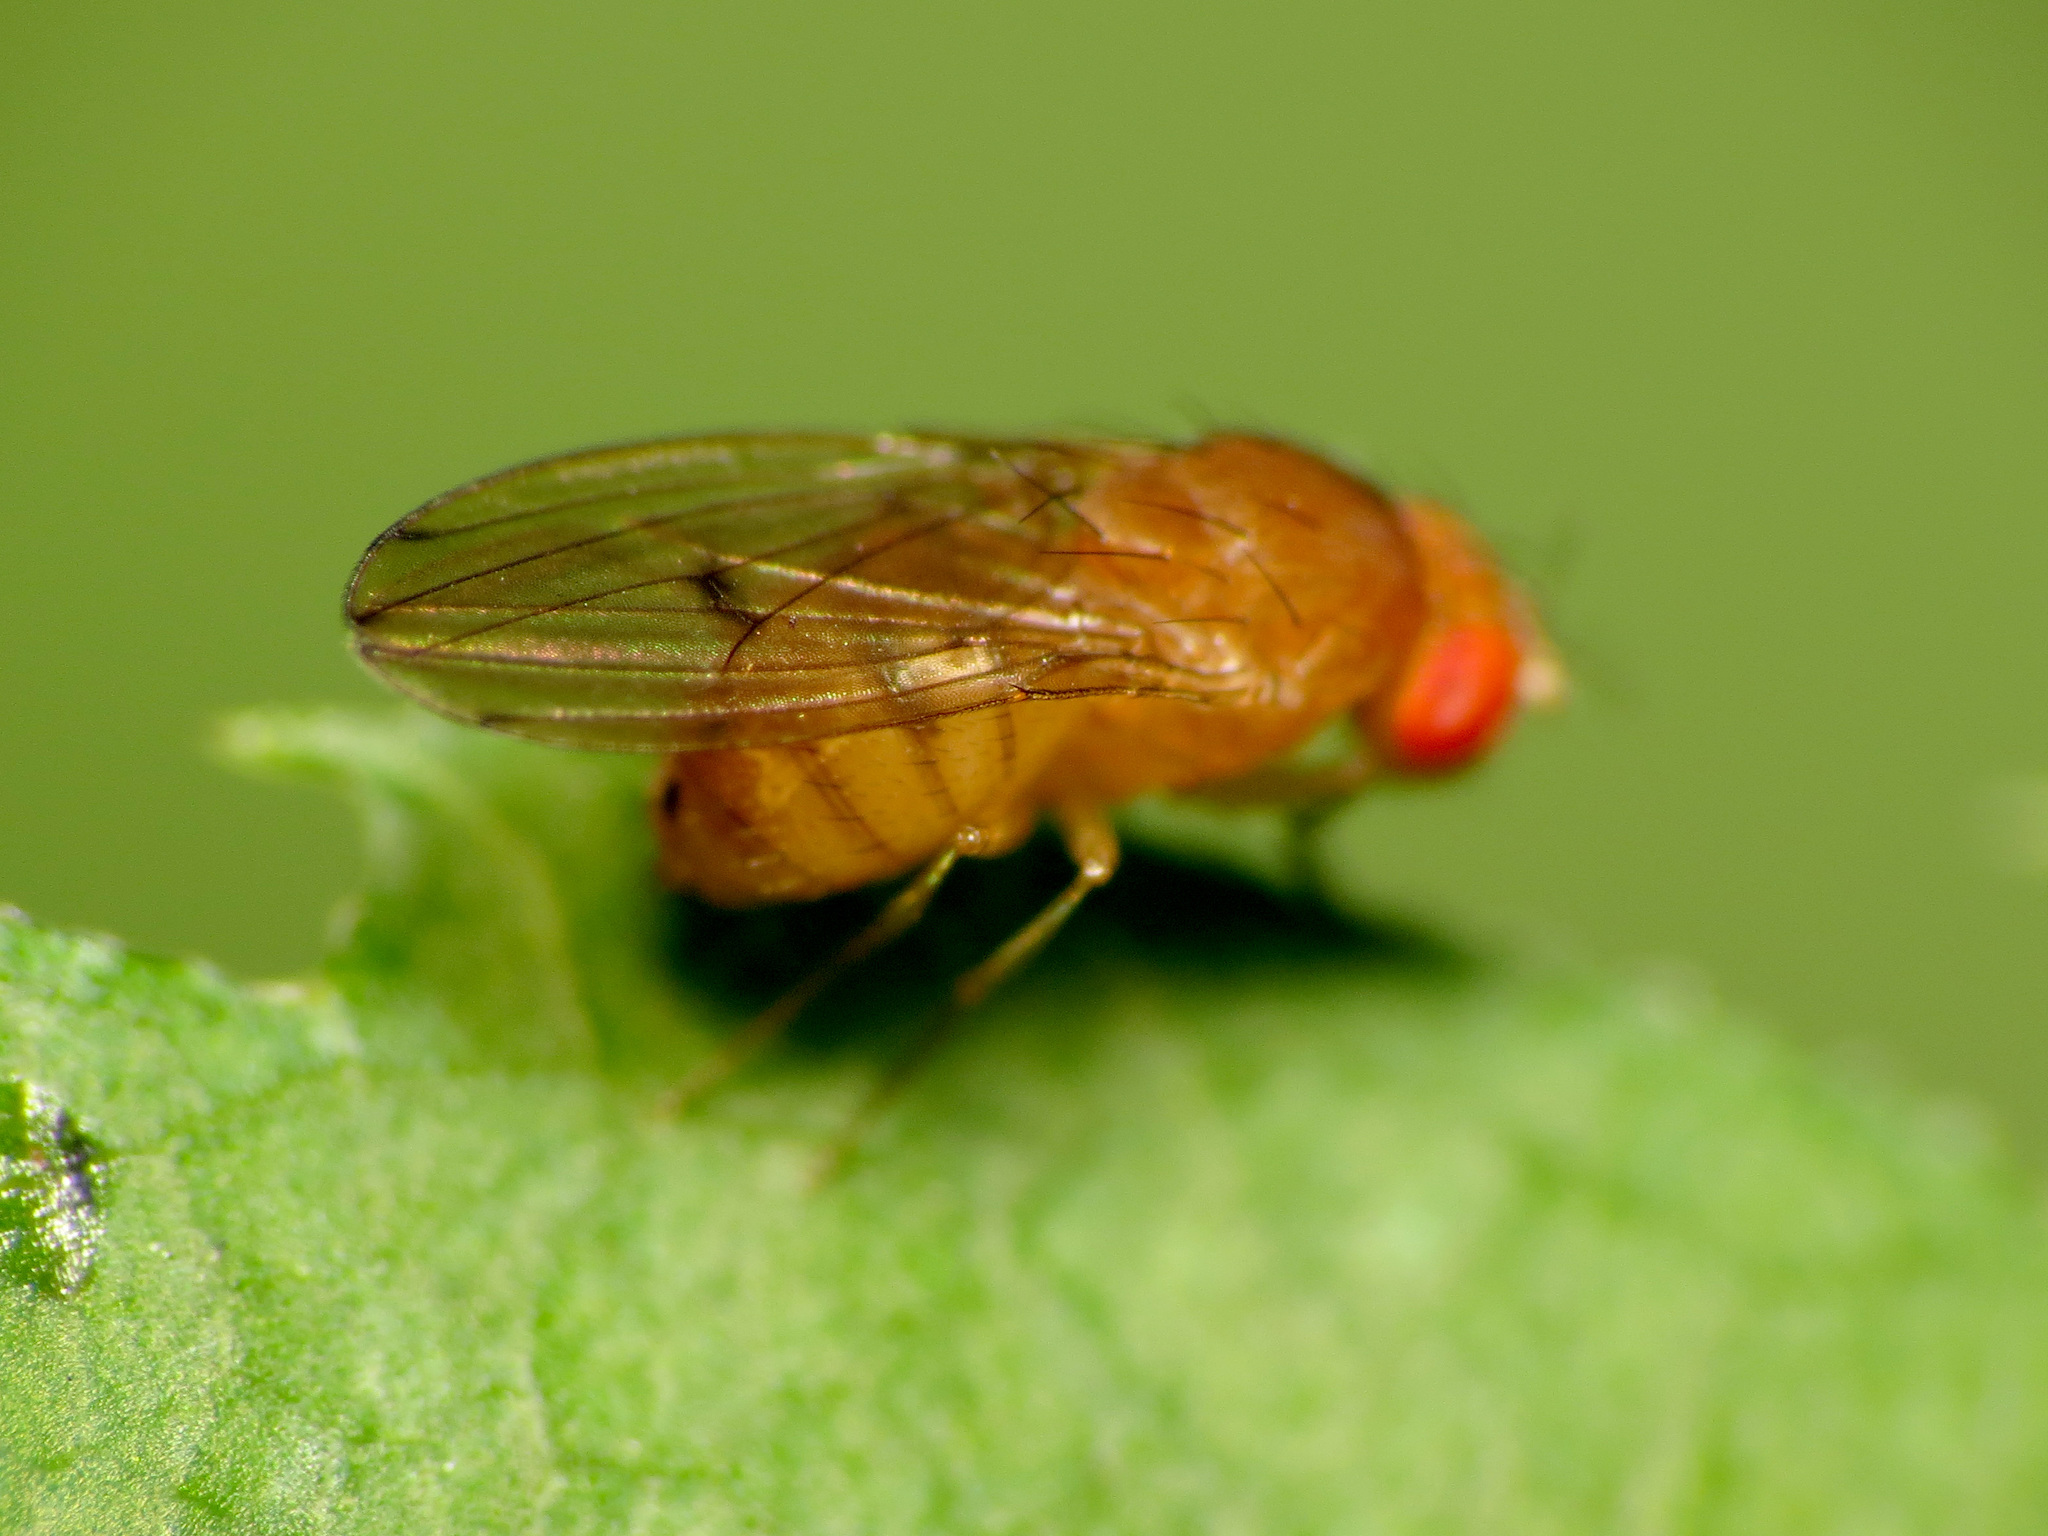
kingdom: Animalia
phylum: Arthropoda
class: Insecta
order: Diptera
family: Drosophilidae
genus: Drosophila
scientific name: Drosophila tripunctata
